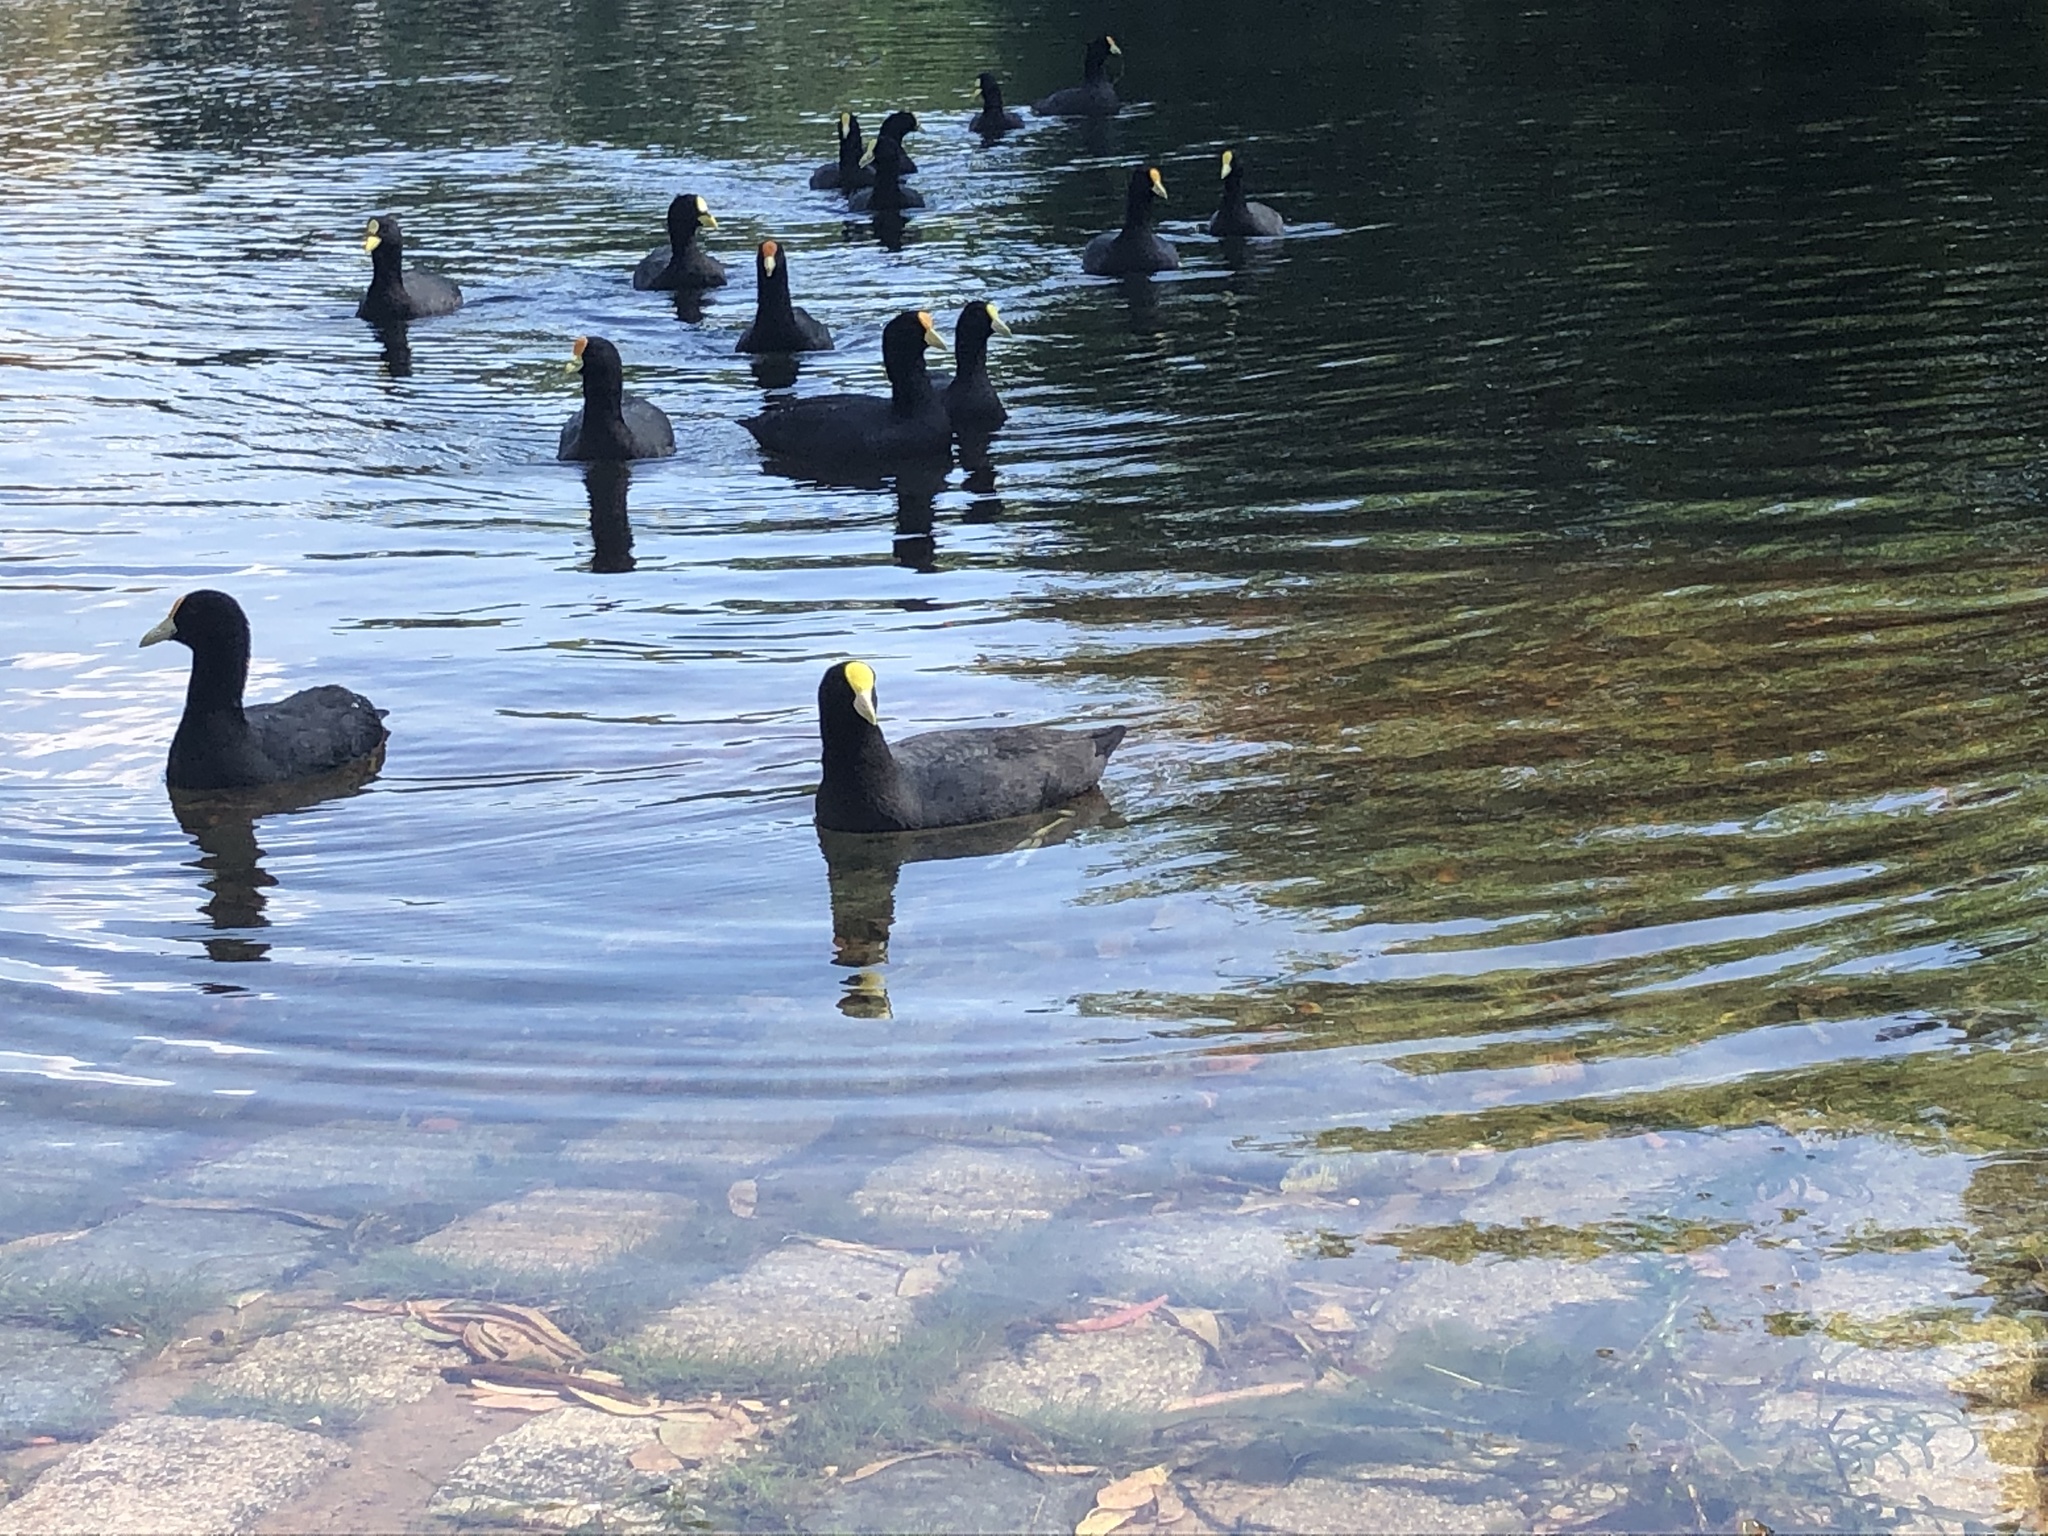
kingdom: Animalia
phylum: Chordata
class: Aves
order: Gruiformes
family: Rallidae
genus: Fulica
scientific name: Fulica leucoptera
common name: White-winged coot
